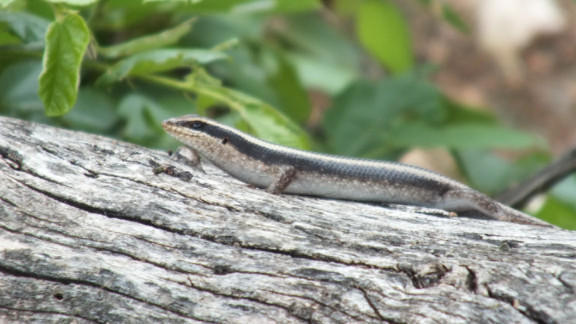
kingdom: Animalia
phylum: Chordata
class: Squamata
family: Scincidae
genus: Trachylepis
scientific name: Trachylepis striata
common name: African striped mabuya
